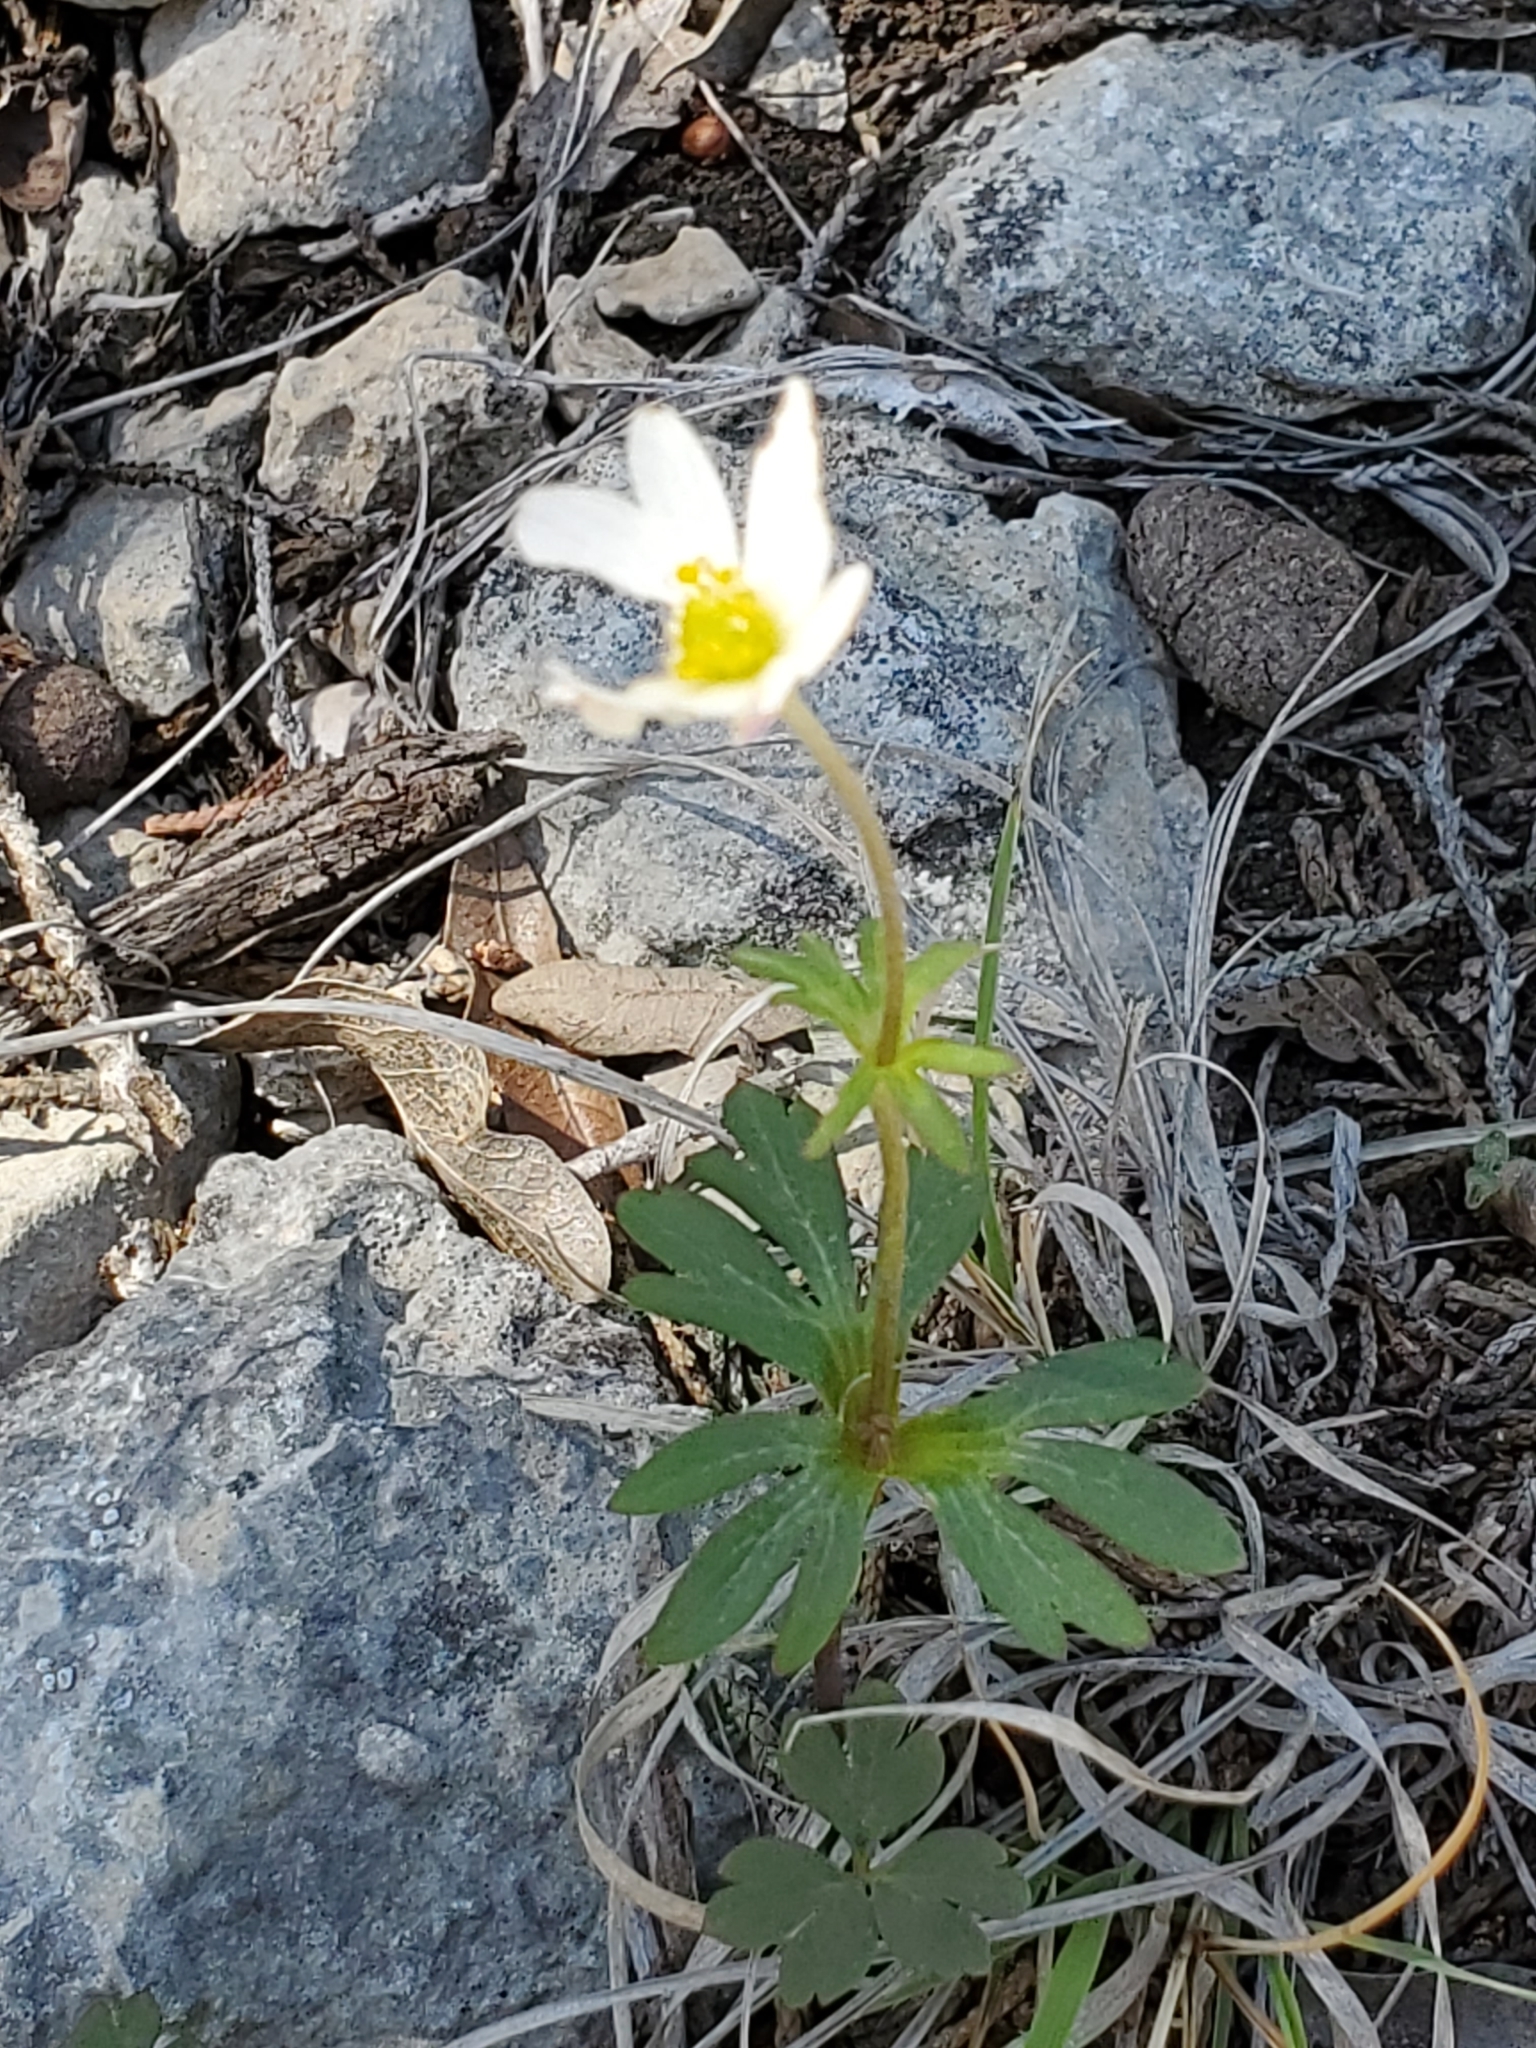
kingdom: Plantae
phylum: Tracheophyta
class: Magnoliopsida
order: Ranunculales
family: Ranunculaceae
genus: Anemone
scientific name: Anemone edwardsiana
